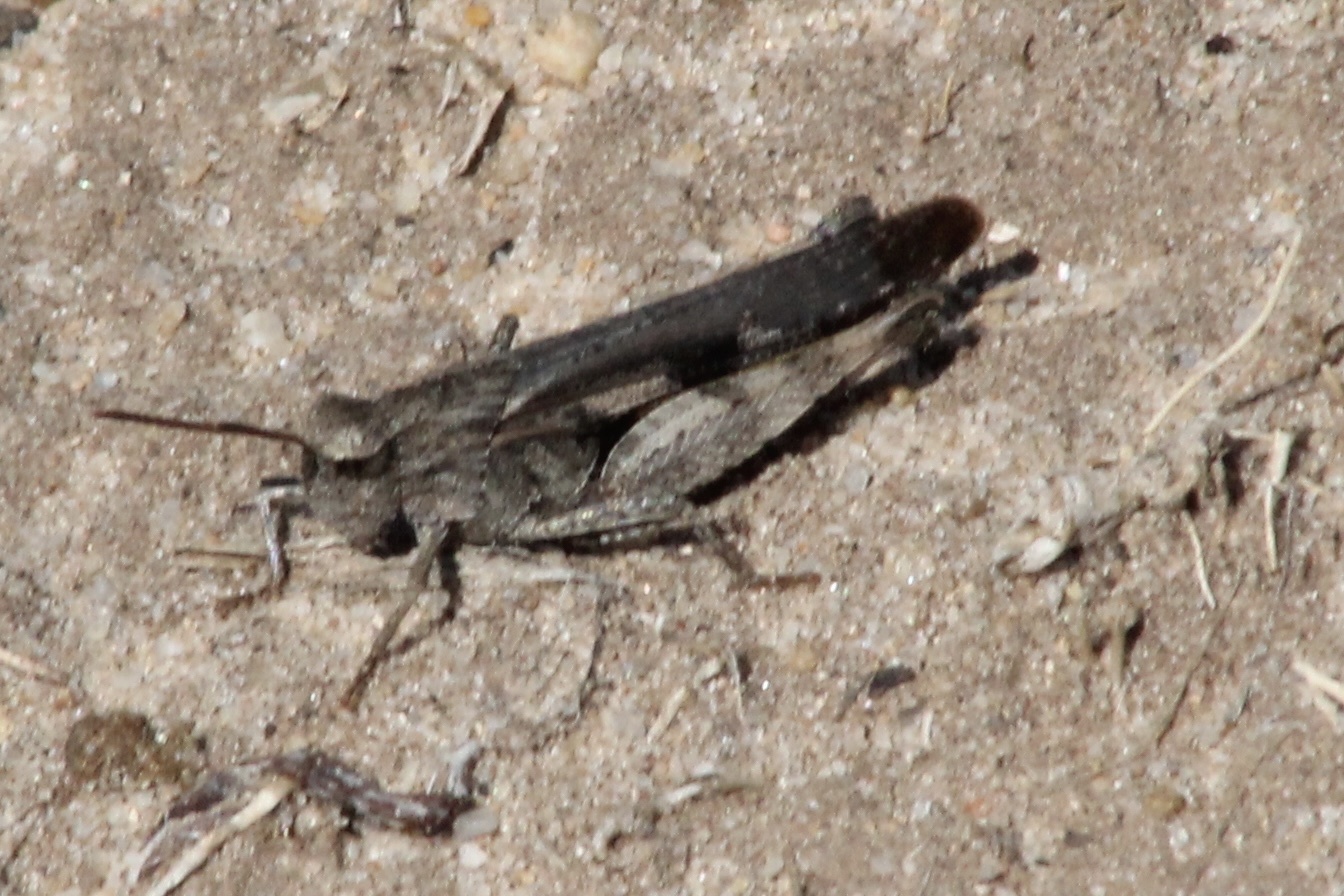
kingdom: Animalia
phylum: Arthropoda
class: Insecta
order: Orthoptera
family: Acrididae
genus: Chortophaga
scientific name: Chortophaga viridifasciata
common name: Green-striped grasshopper
